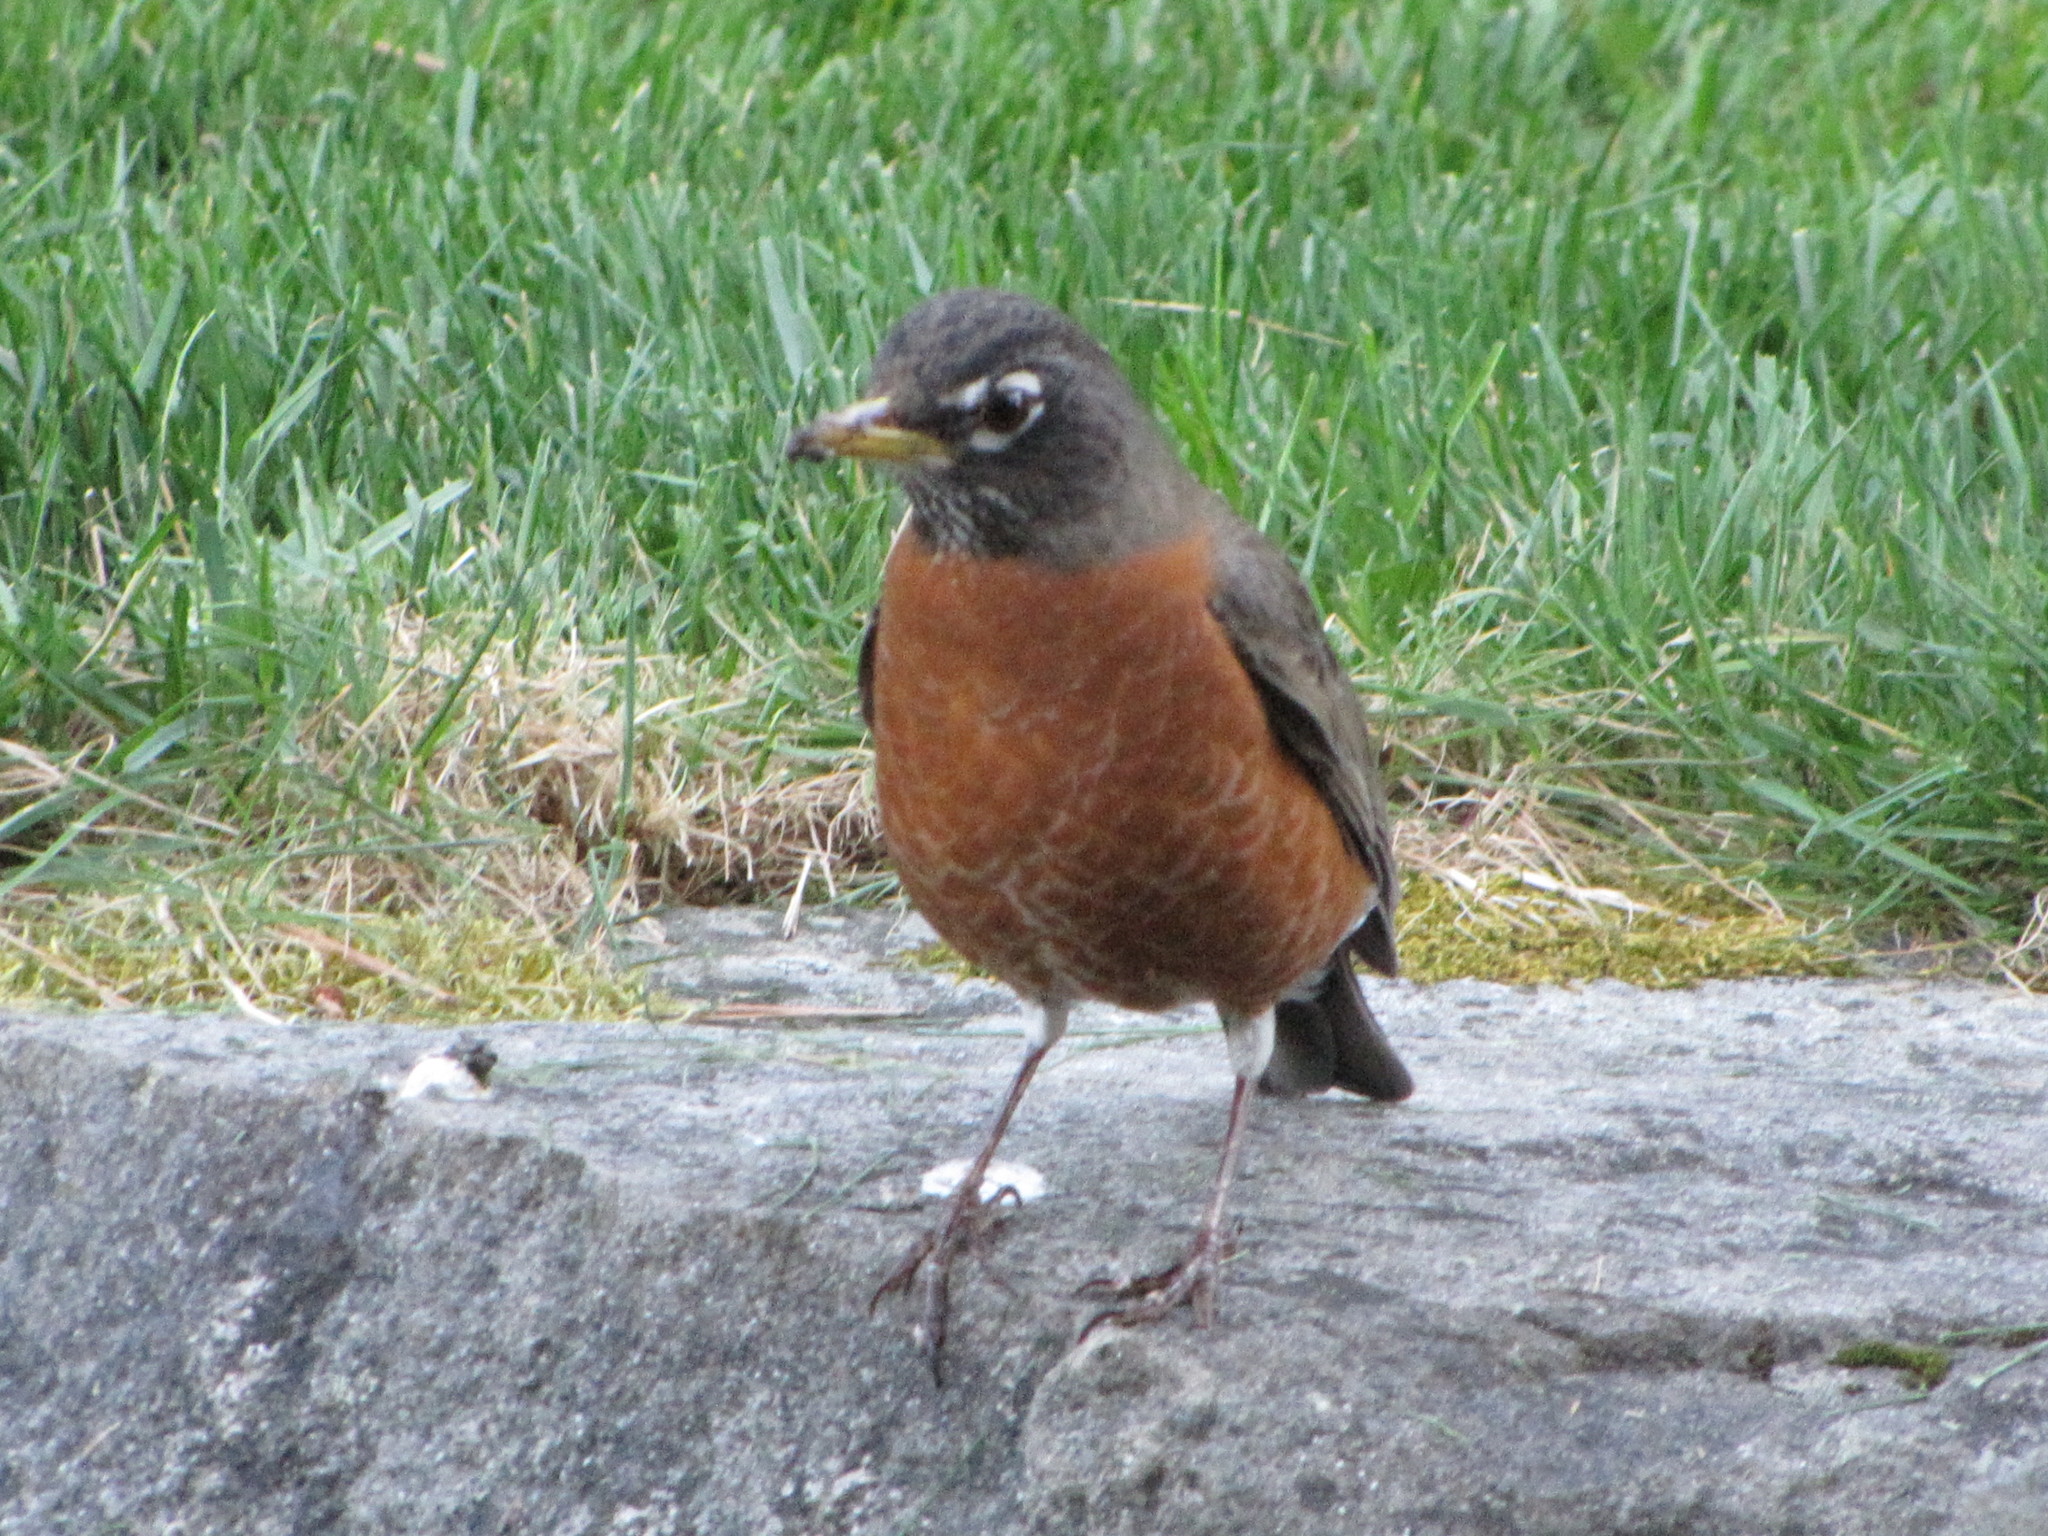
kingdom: Animalia
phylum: Chordata
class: Aves
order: Passeriformes
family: Turdidae
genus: Turdus
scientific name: Turdus migratorius
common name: American robin
